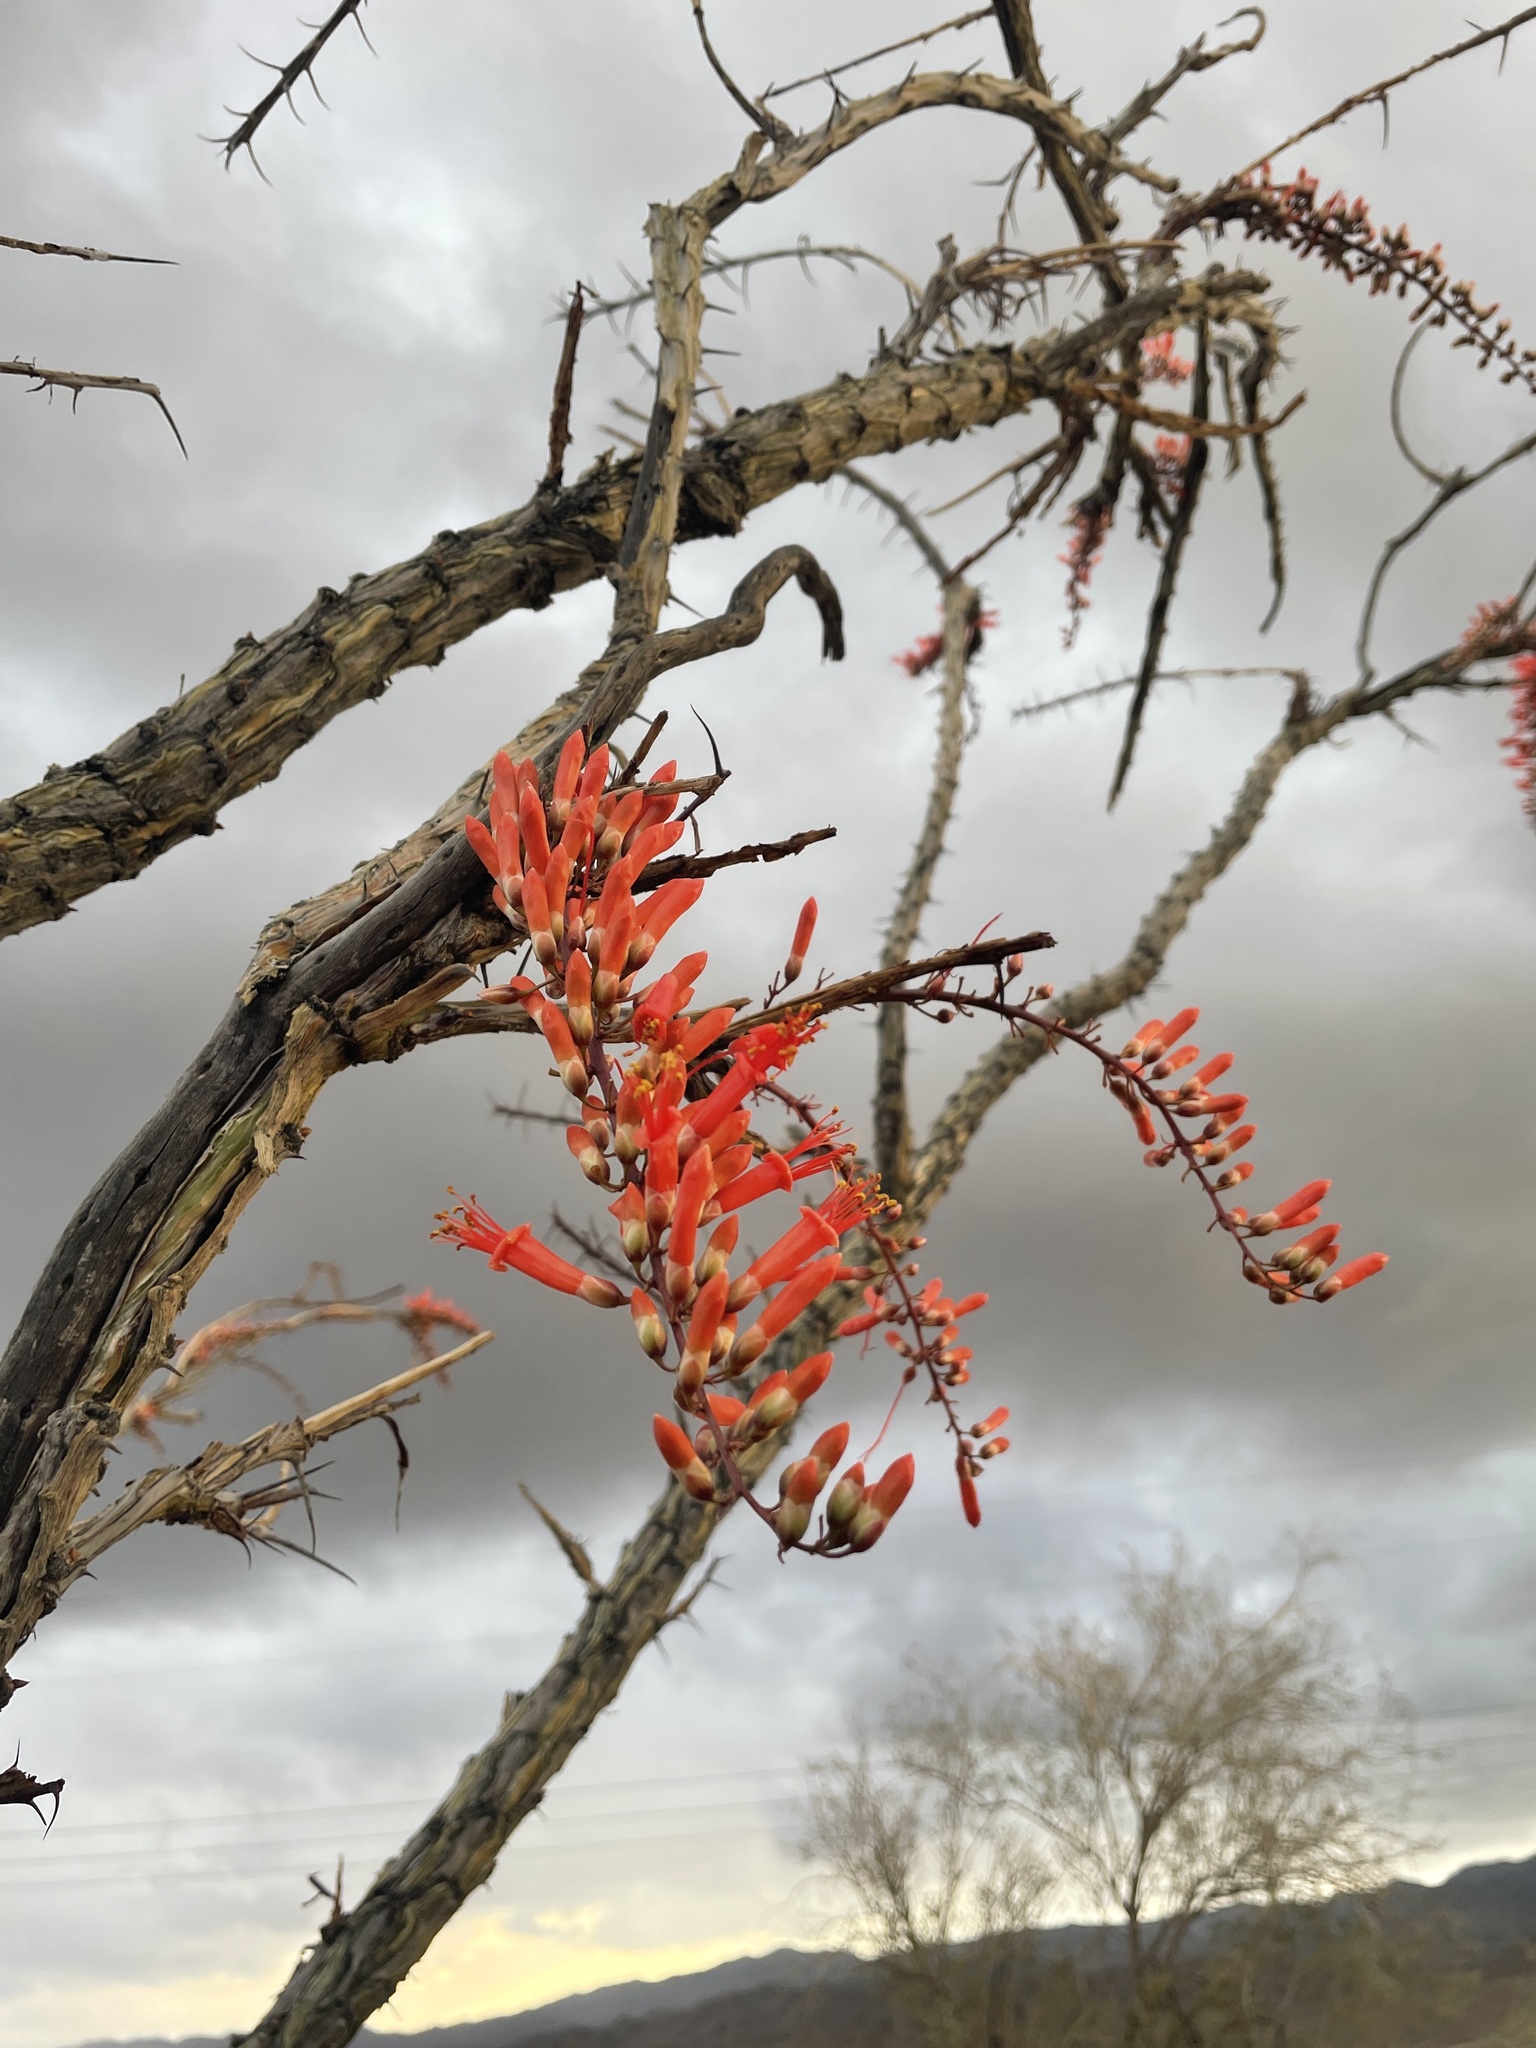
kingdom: Plantae
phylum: Tracheophyta
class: Magnoliopsida
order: Ericales
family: Fouquieriaceae
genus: Fouquieria
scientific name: Fouquieria splendens
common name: Vine-cactus
